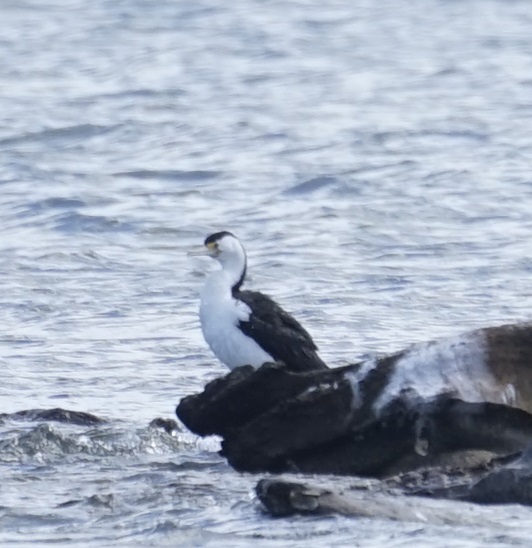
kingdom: Animalia
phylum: Chordata
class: Aves
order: Suliformes
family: Phalacrocoracidae
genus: Phalacrocorax
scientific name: Phalacrocorax varius
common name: Pied cormorant
